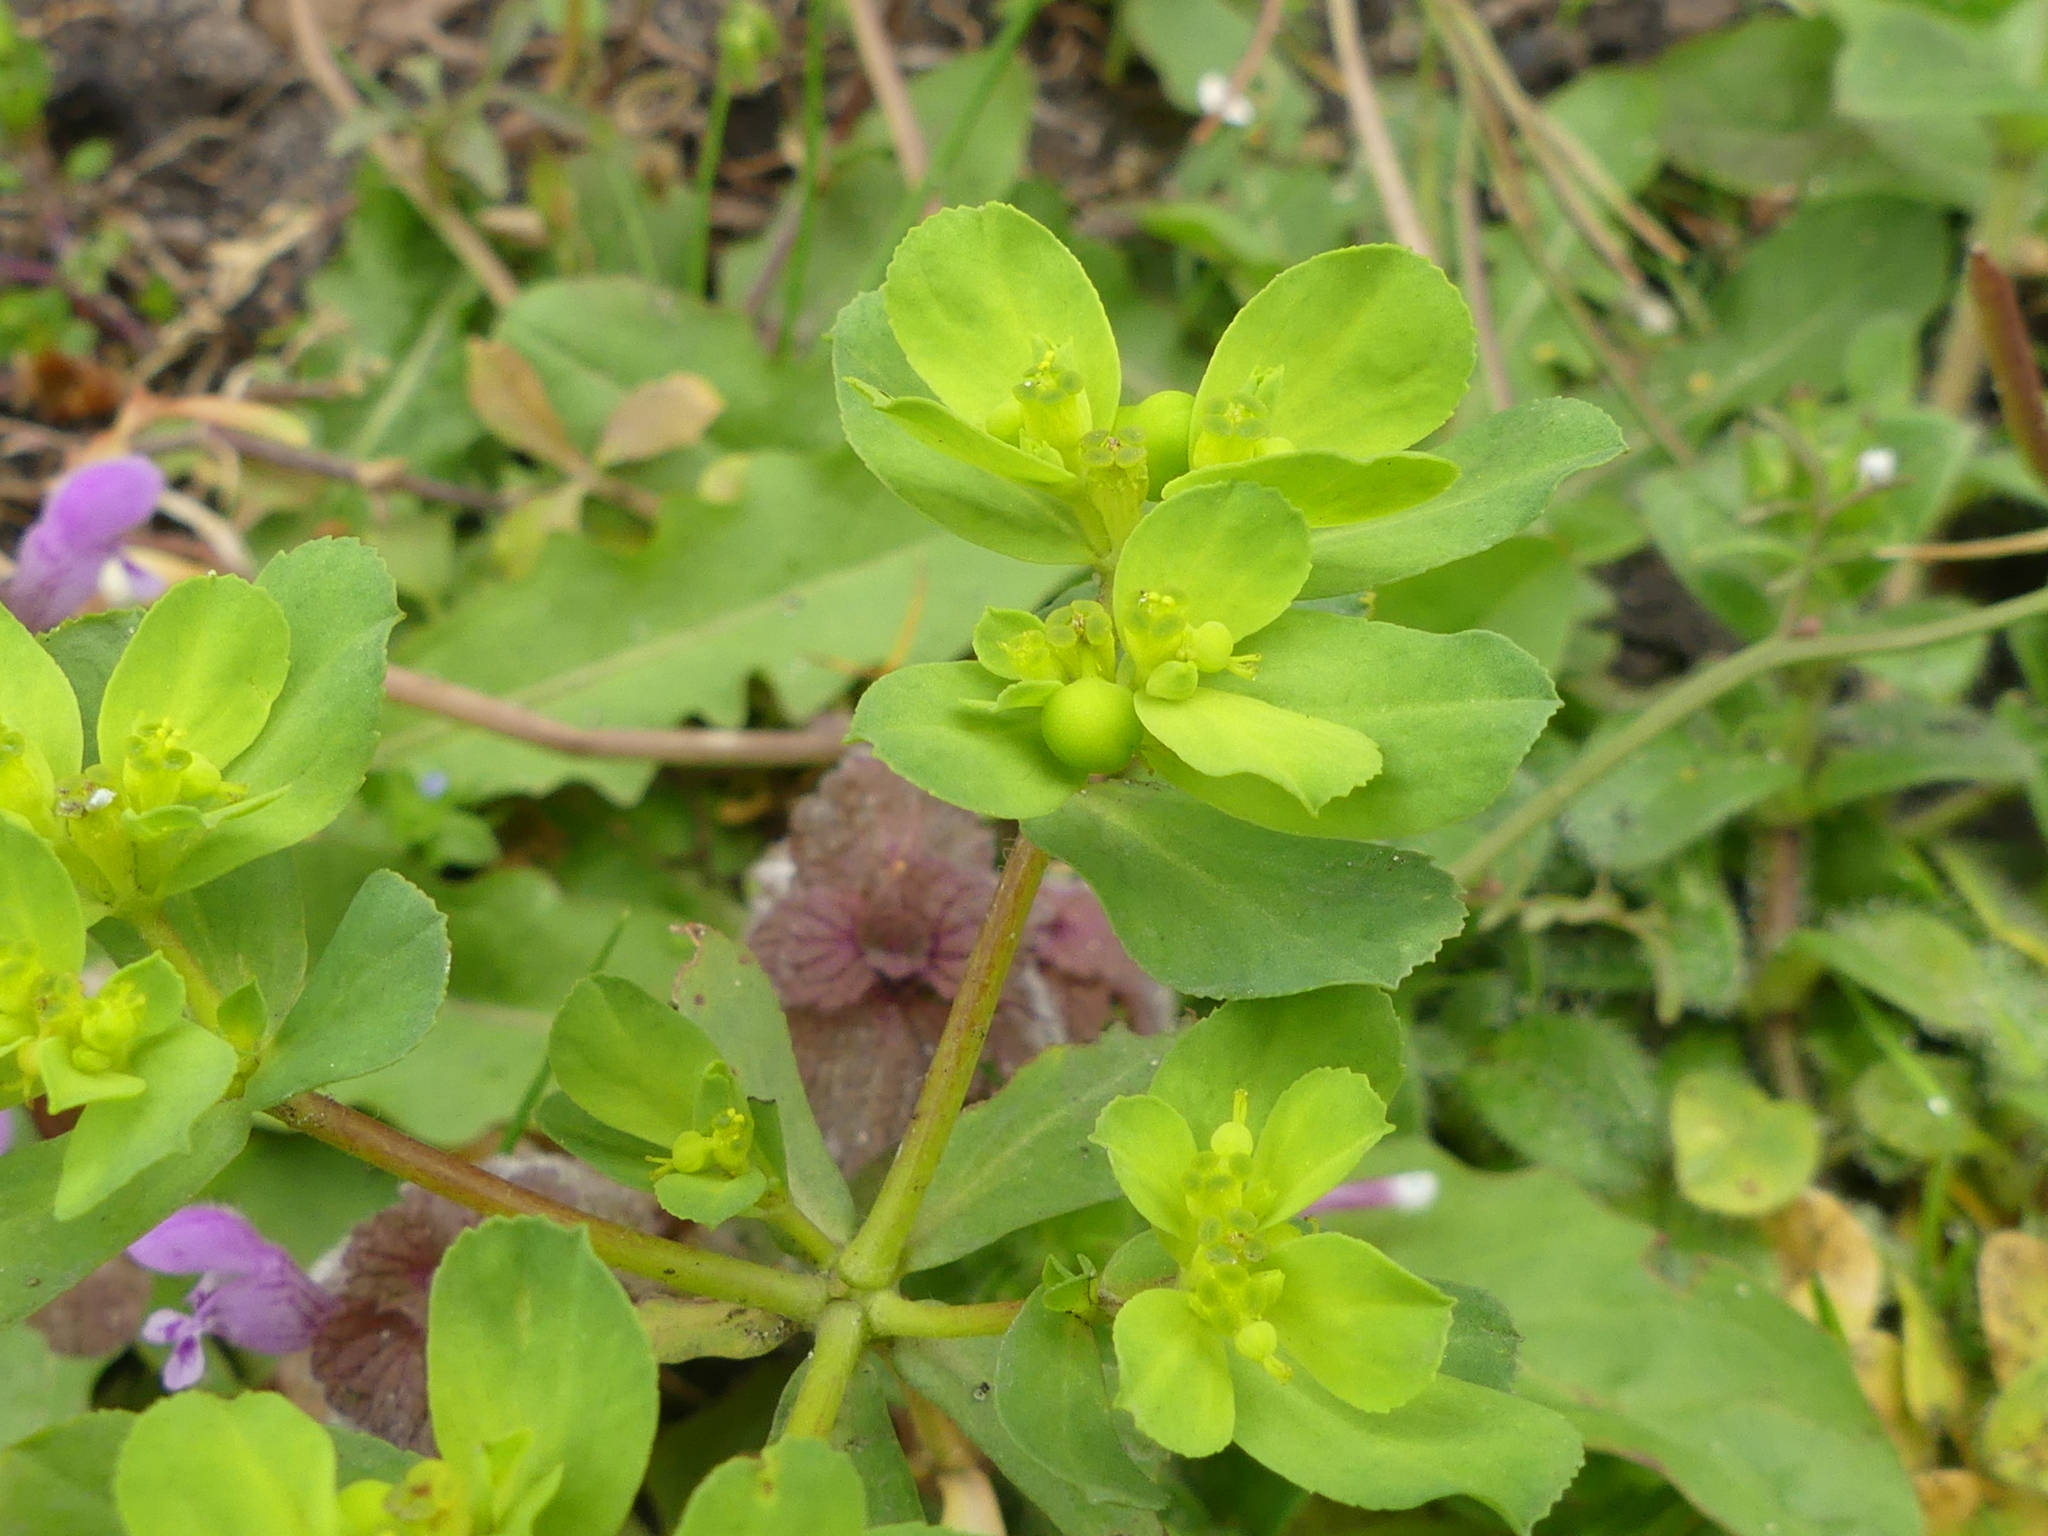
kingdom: Plantae
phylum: Tracheophyta
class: Magnoliopsida
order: Malpighiales
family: Euphorbiaceae
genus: Euphorbia
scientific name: Euphorbia helioscopia
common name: Sun spurge
